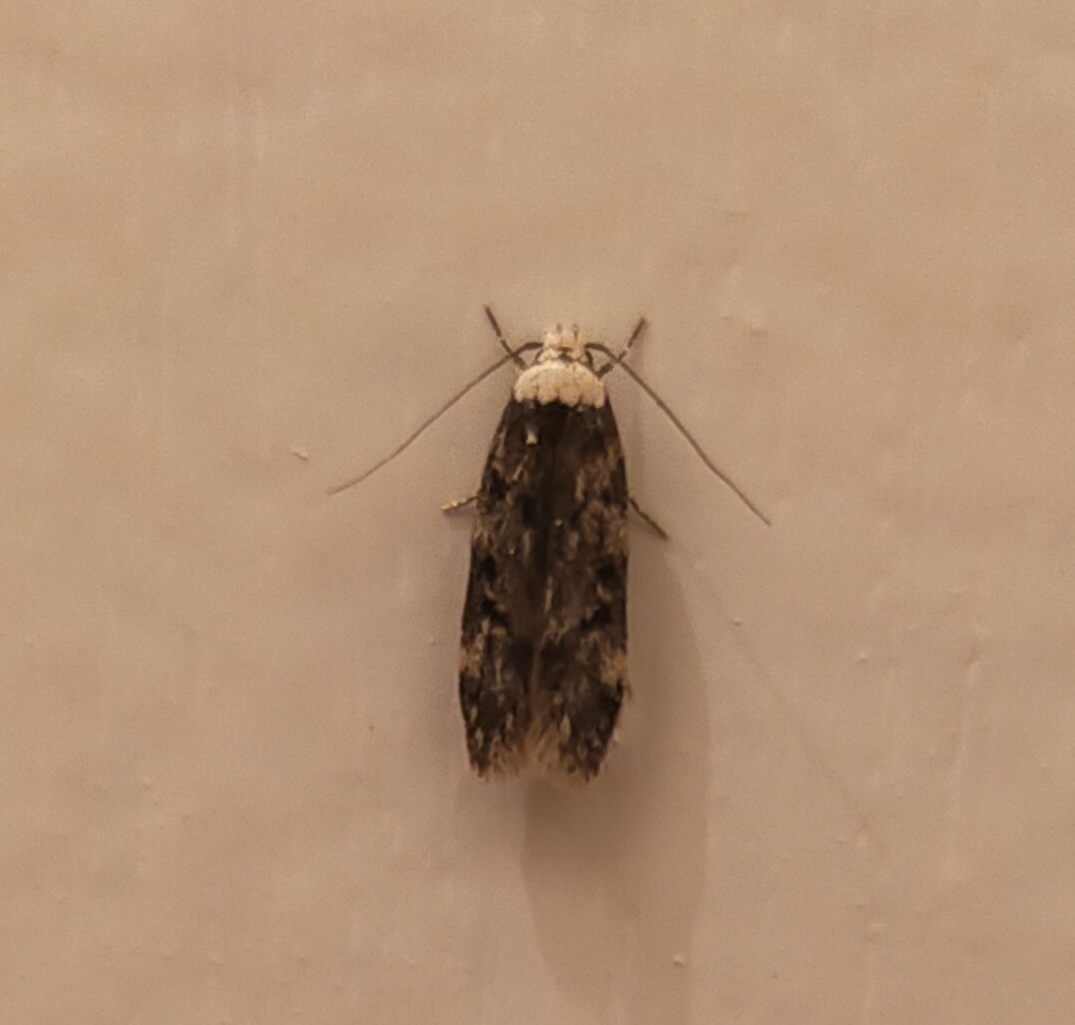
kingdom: Animalia
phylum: Arthropoda
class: Insecta
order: Lepidoptera
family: Oecophoridae
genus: Endrosis
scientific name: Endrosis sarcitrella
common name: White-shouldered house moth
